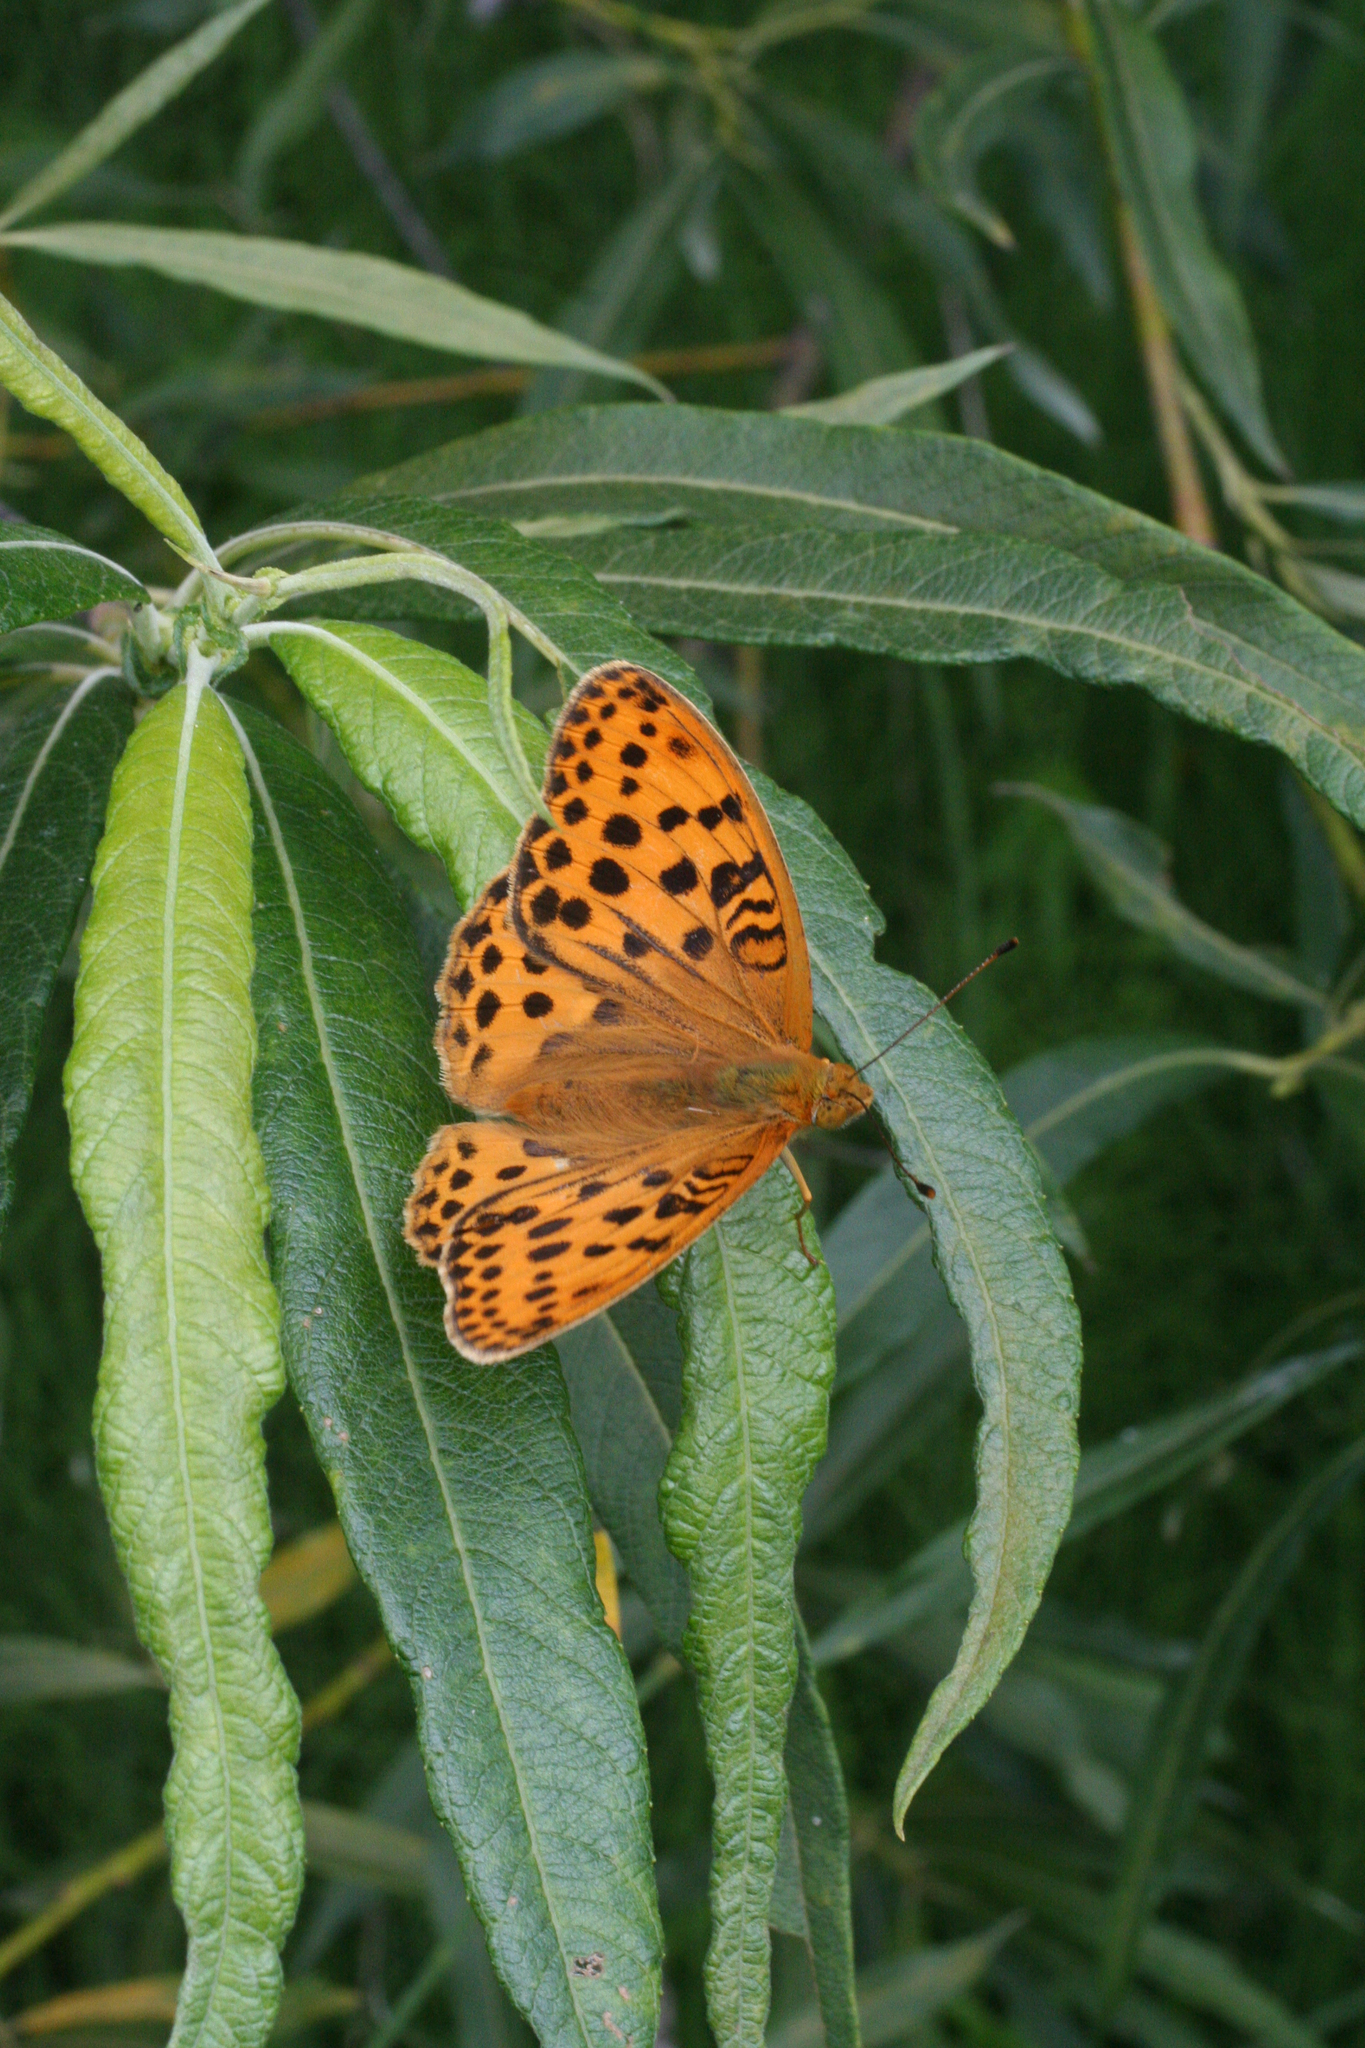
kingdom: Animalia
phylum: Arthropoda
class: Insecta
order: Lepidoptera
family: Nymphalidae
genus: Argyronome
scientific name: Argyronome laodice
